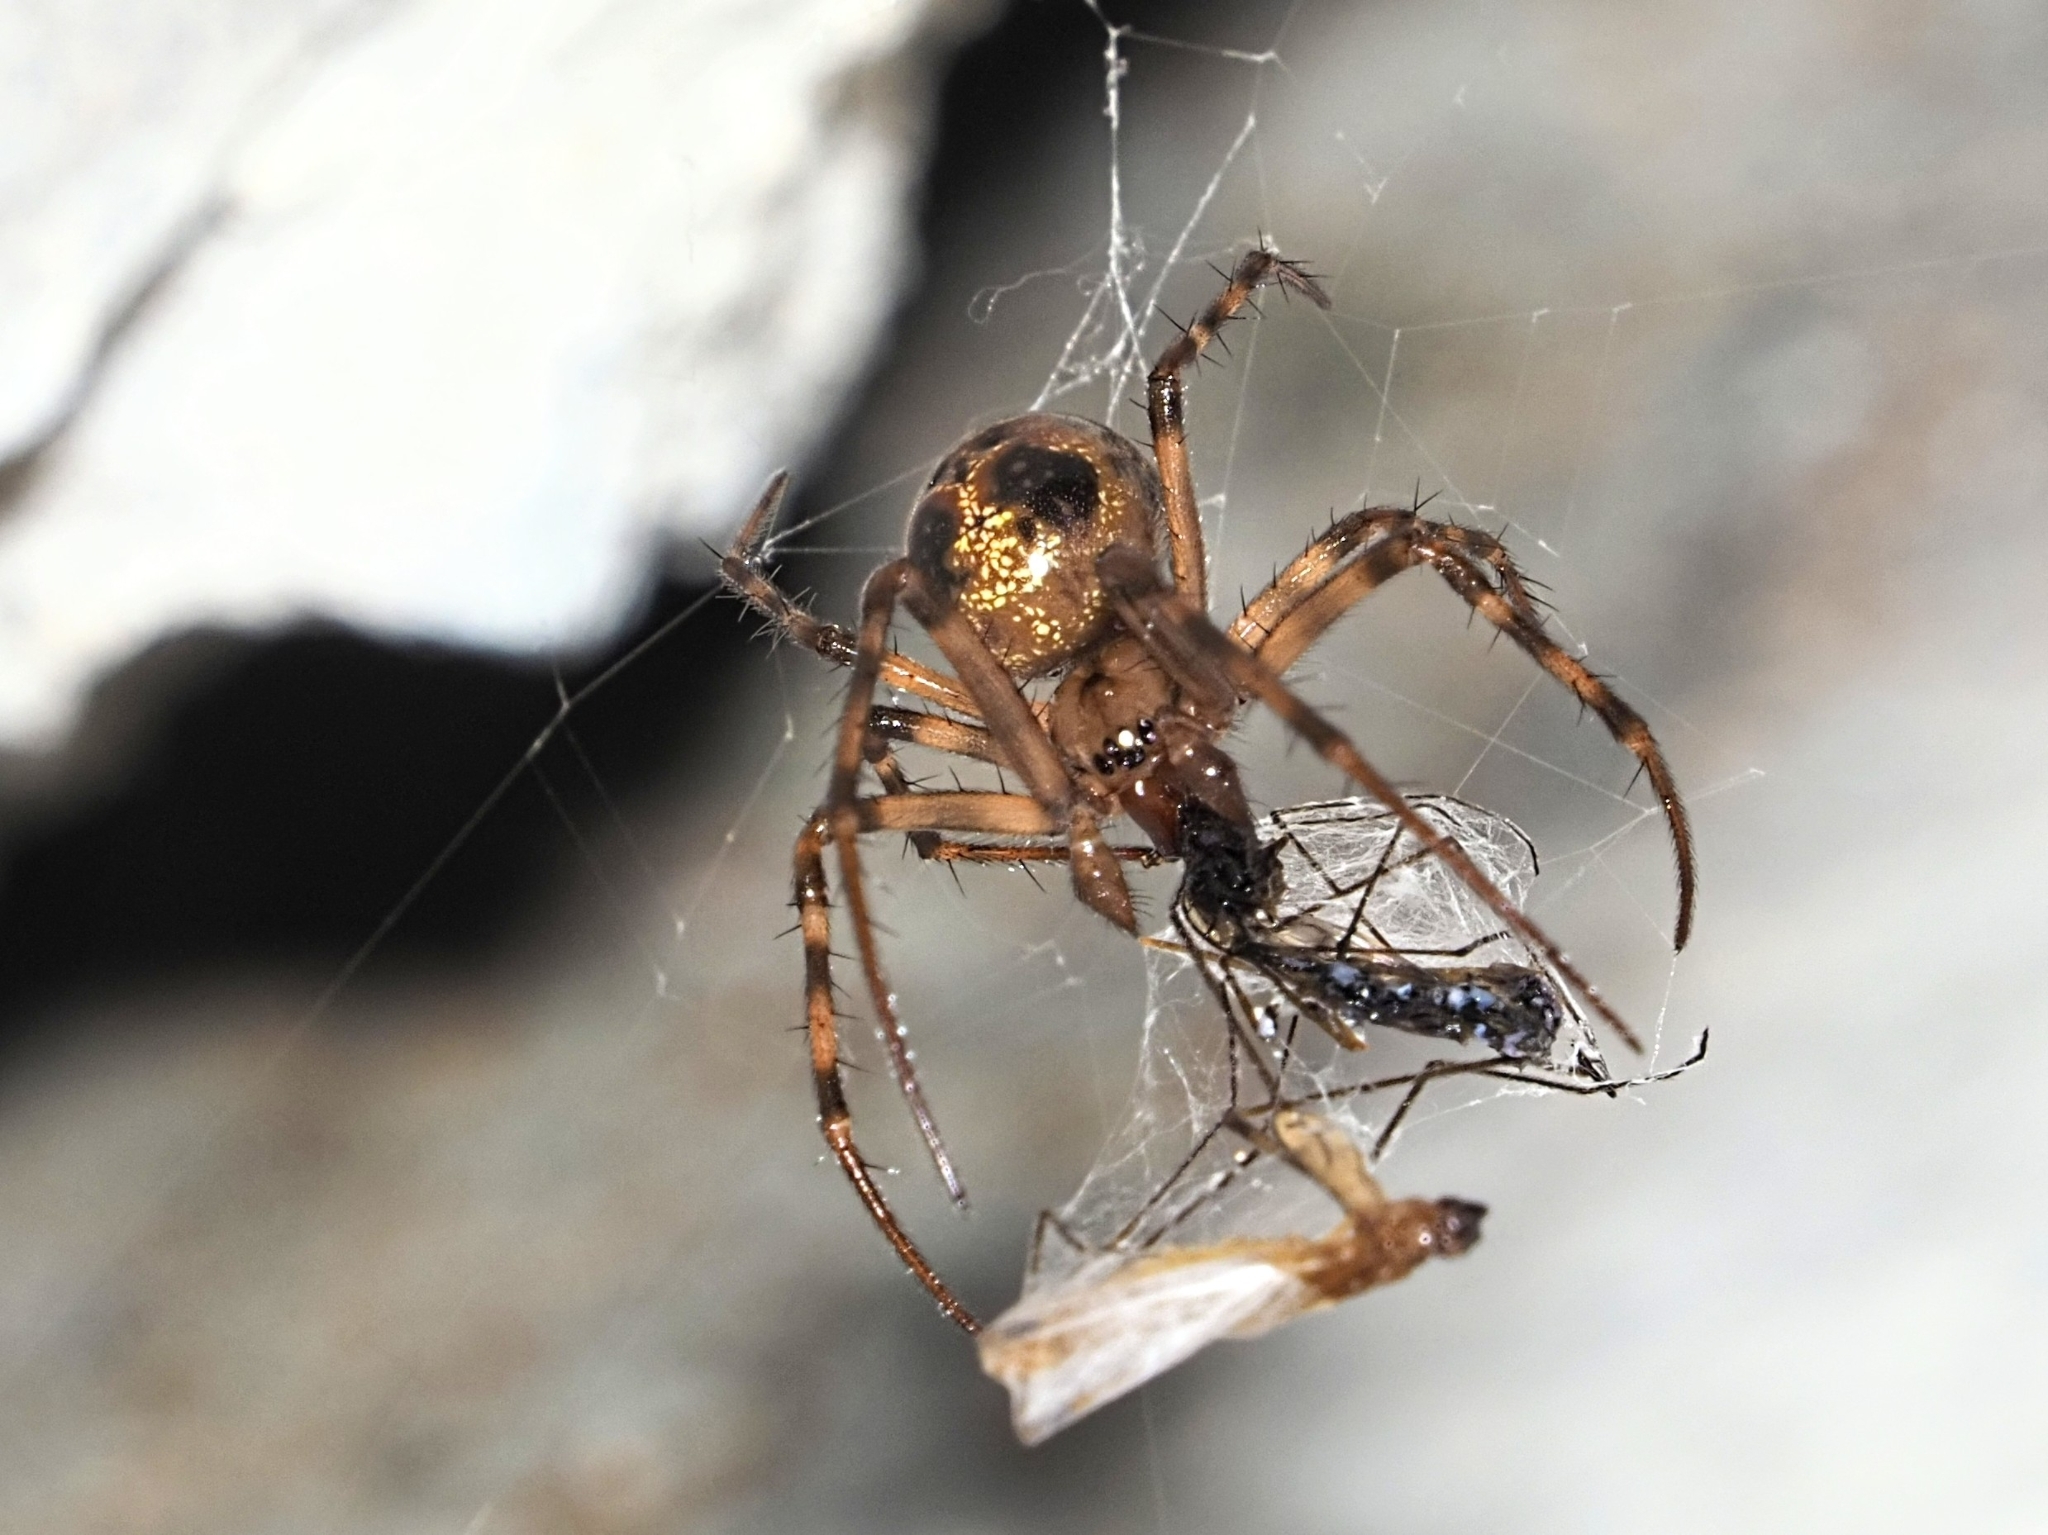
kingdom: Animalia
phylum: Arthropoda
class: Arachnida
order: Araneae
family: Tetragnathidae
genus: Meta
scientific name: Meta menardi
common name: Cave spider
